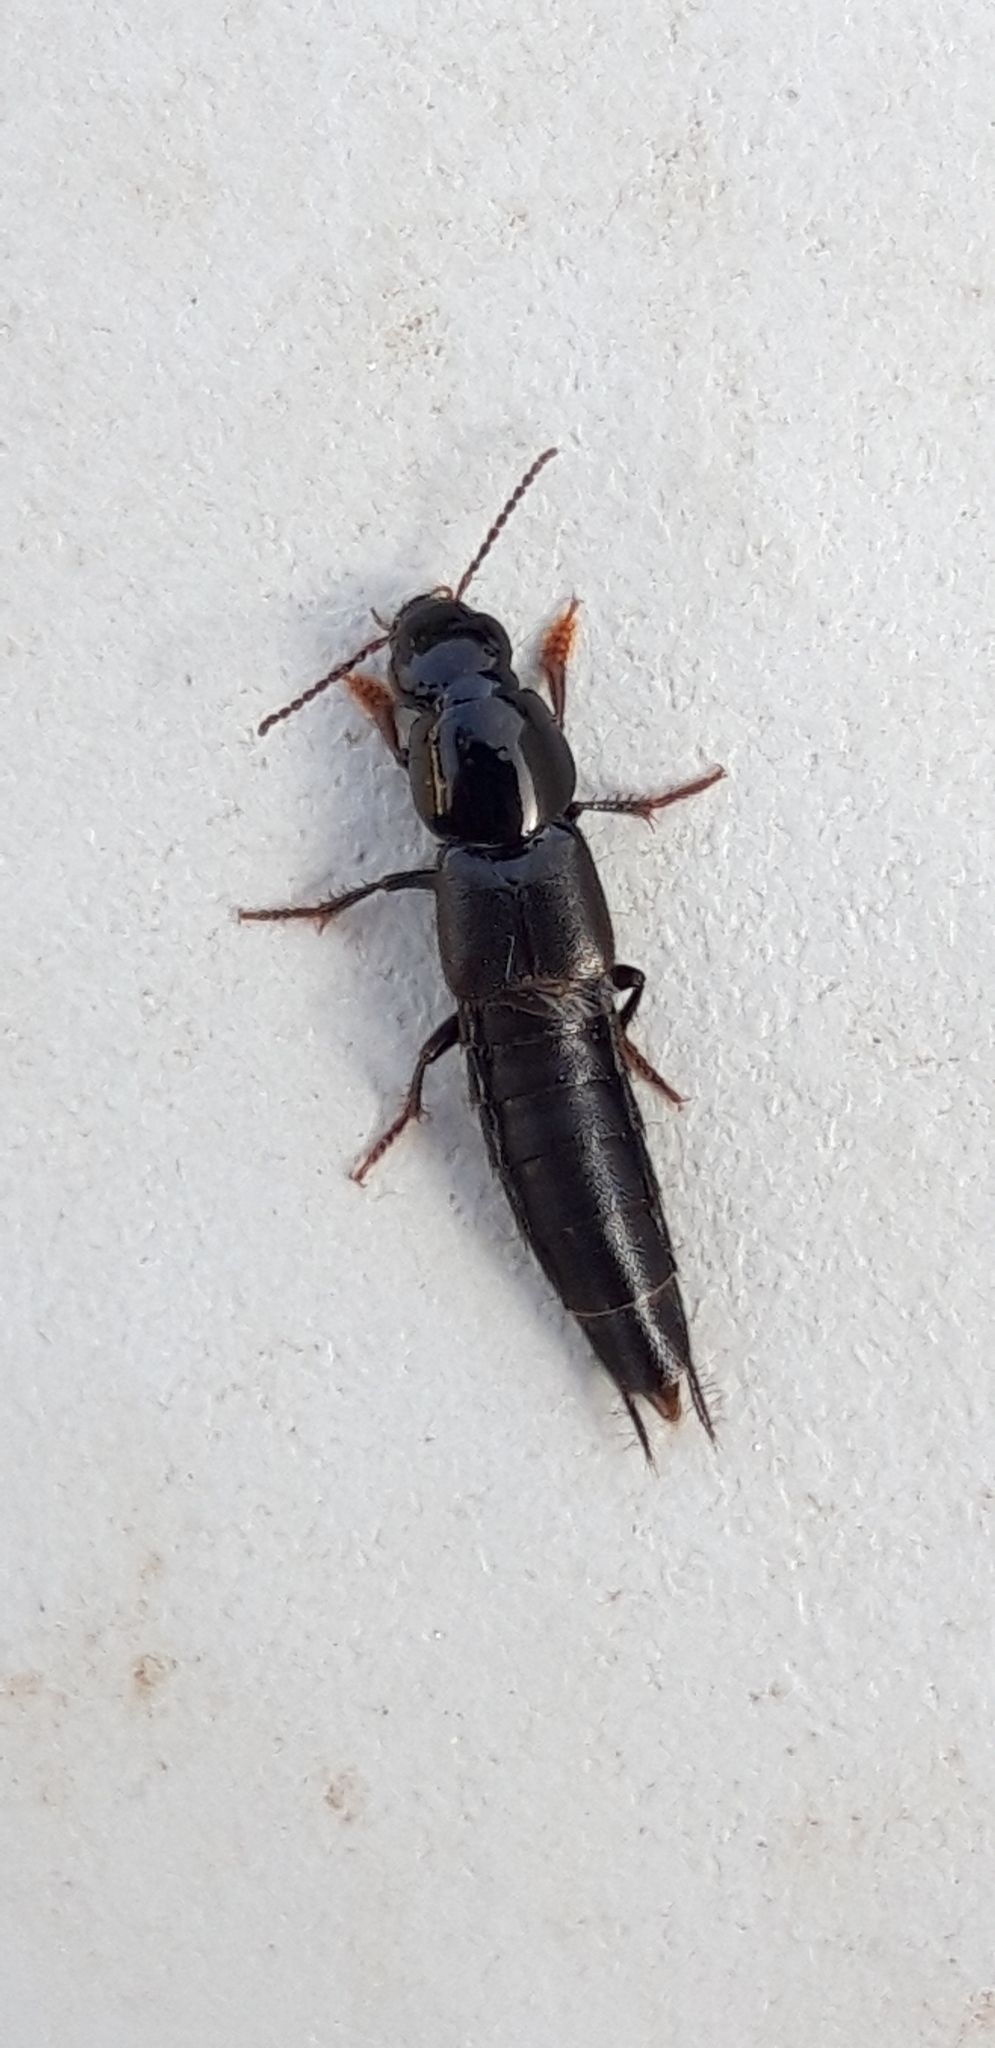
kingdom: Animalia
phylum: Arthropoda
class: Insecta
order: Coleoptera
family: Staphyliniae
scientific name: Staphyliniae
